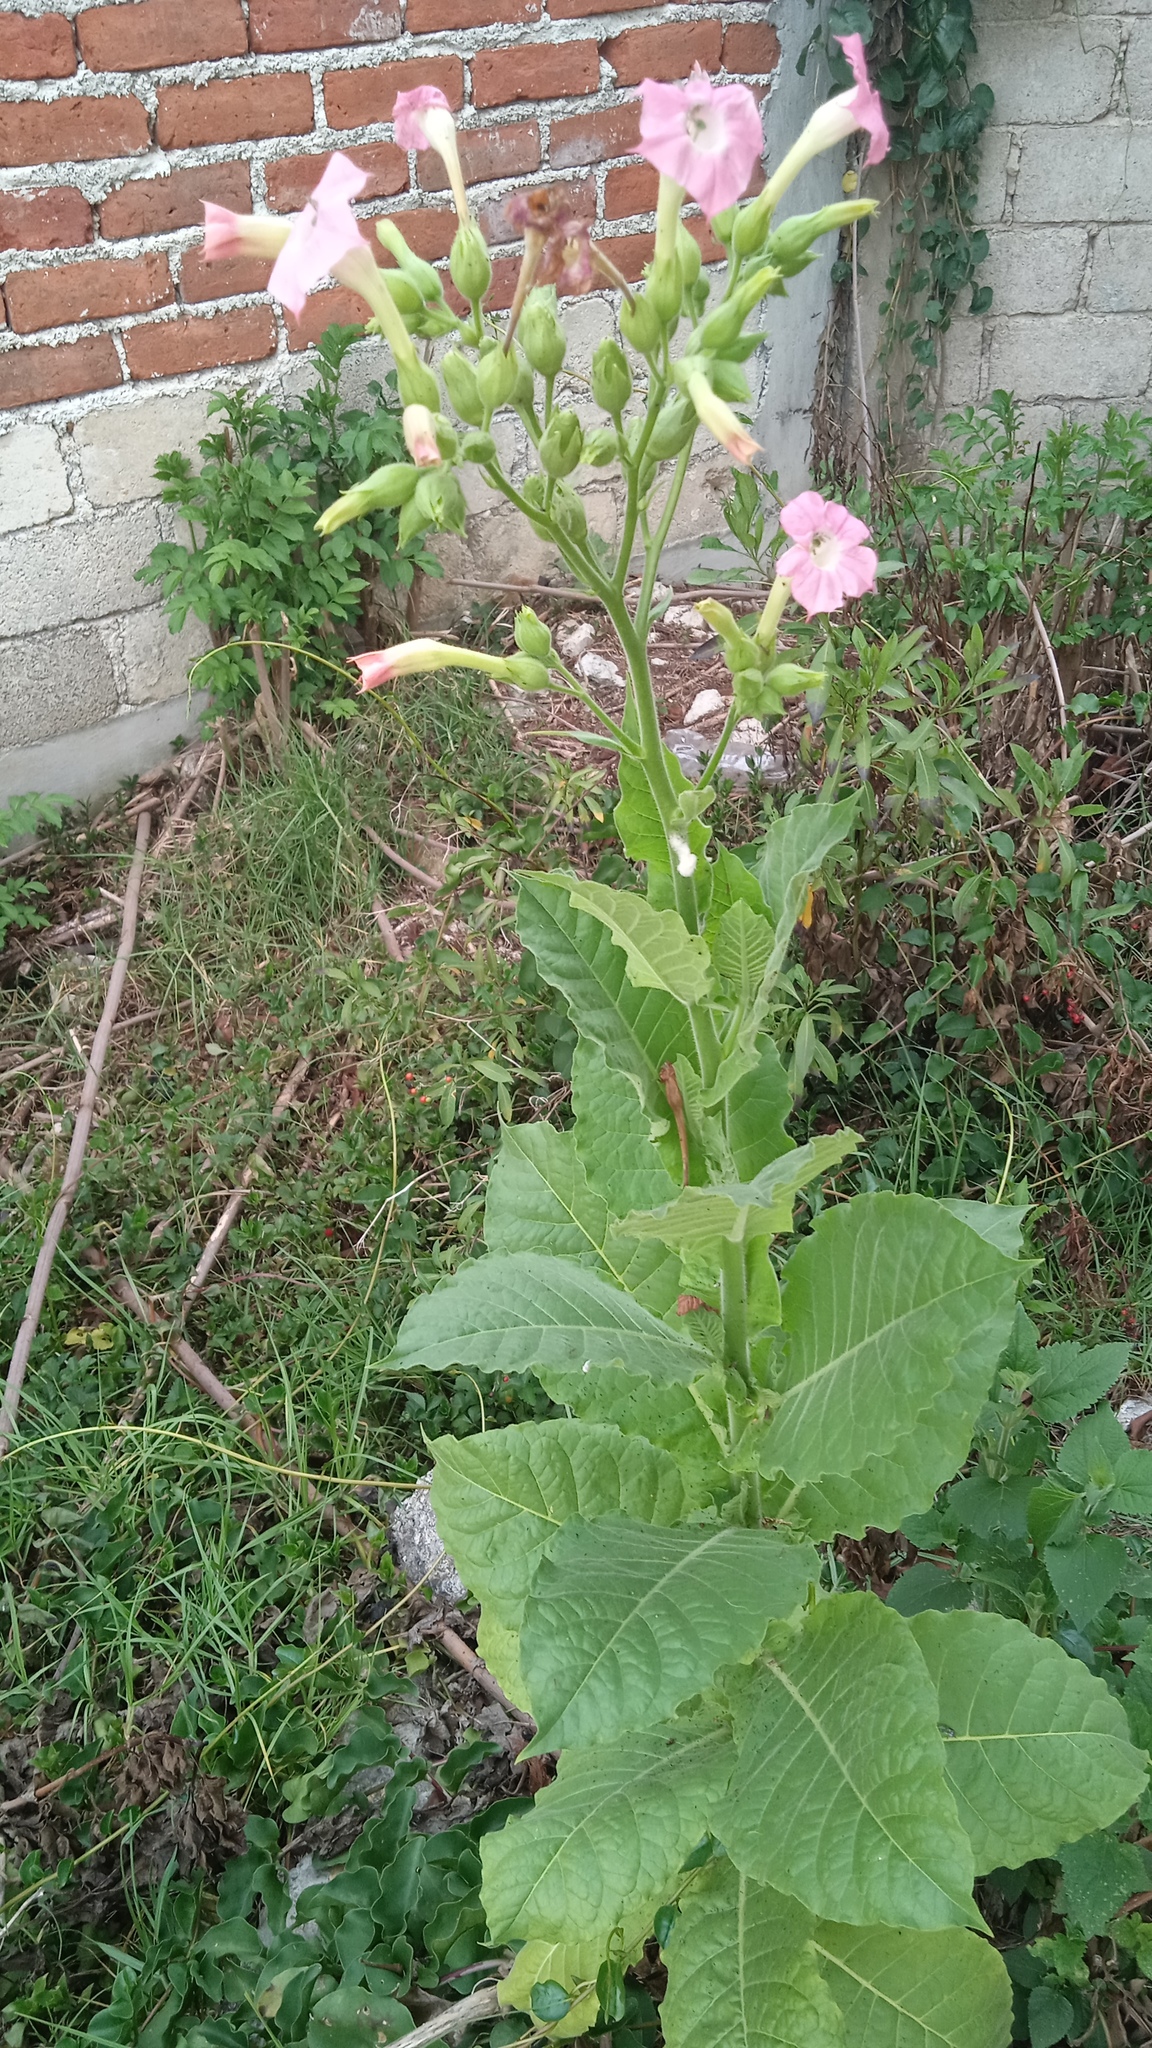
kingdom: Plantae
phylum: Tracheophyta
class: Magnoliopsida
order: Solanales
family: Solanaceae
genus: Nicotiana
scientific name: Nicotiana tabacum
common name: Tobacco
